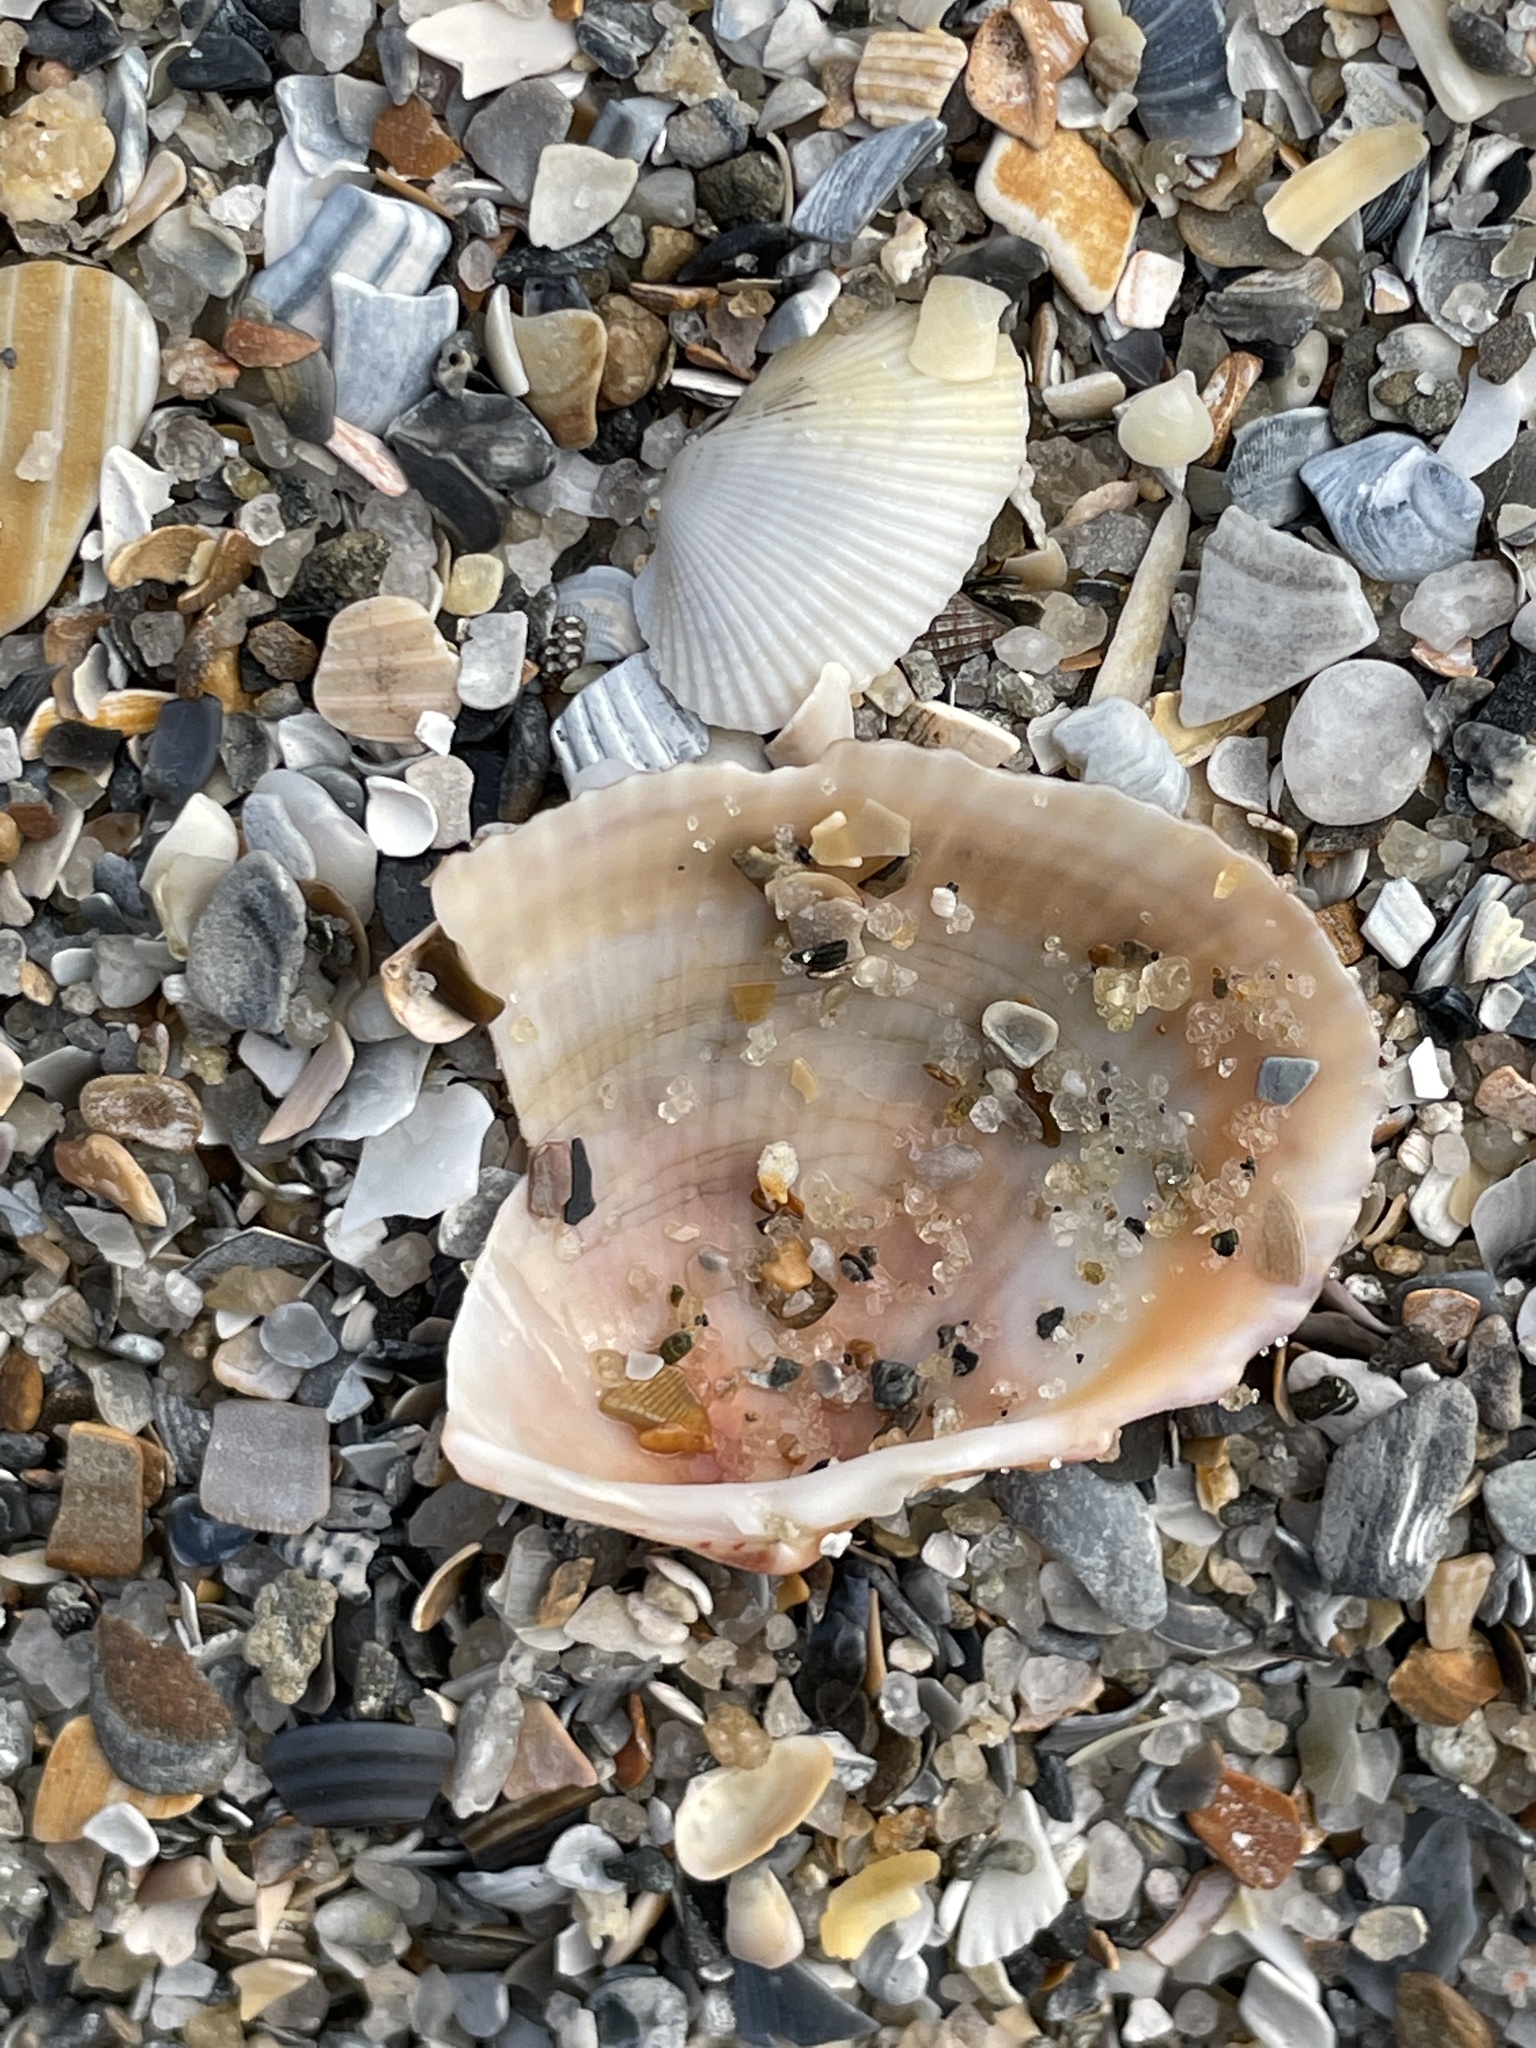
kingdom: Animalia
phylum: Mollusca
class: Bivalvia
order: Cardiida
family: Cardiidae
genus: Papyridea
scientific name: Papyridea lata
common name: Broad papercockle
